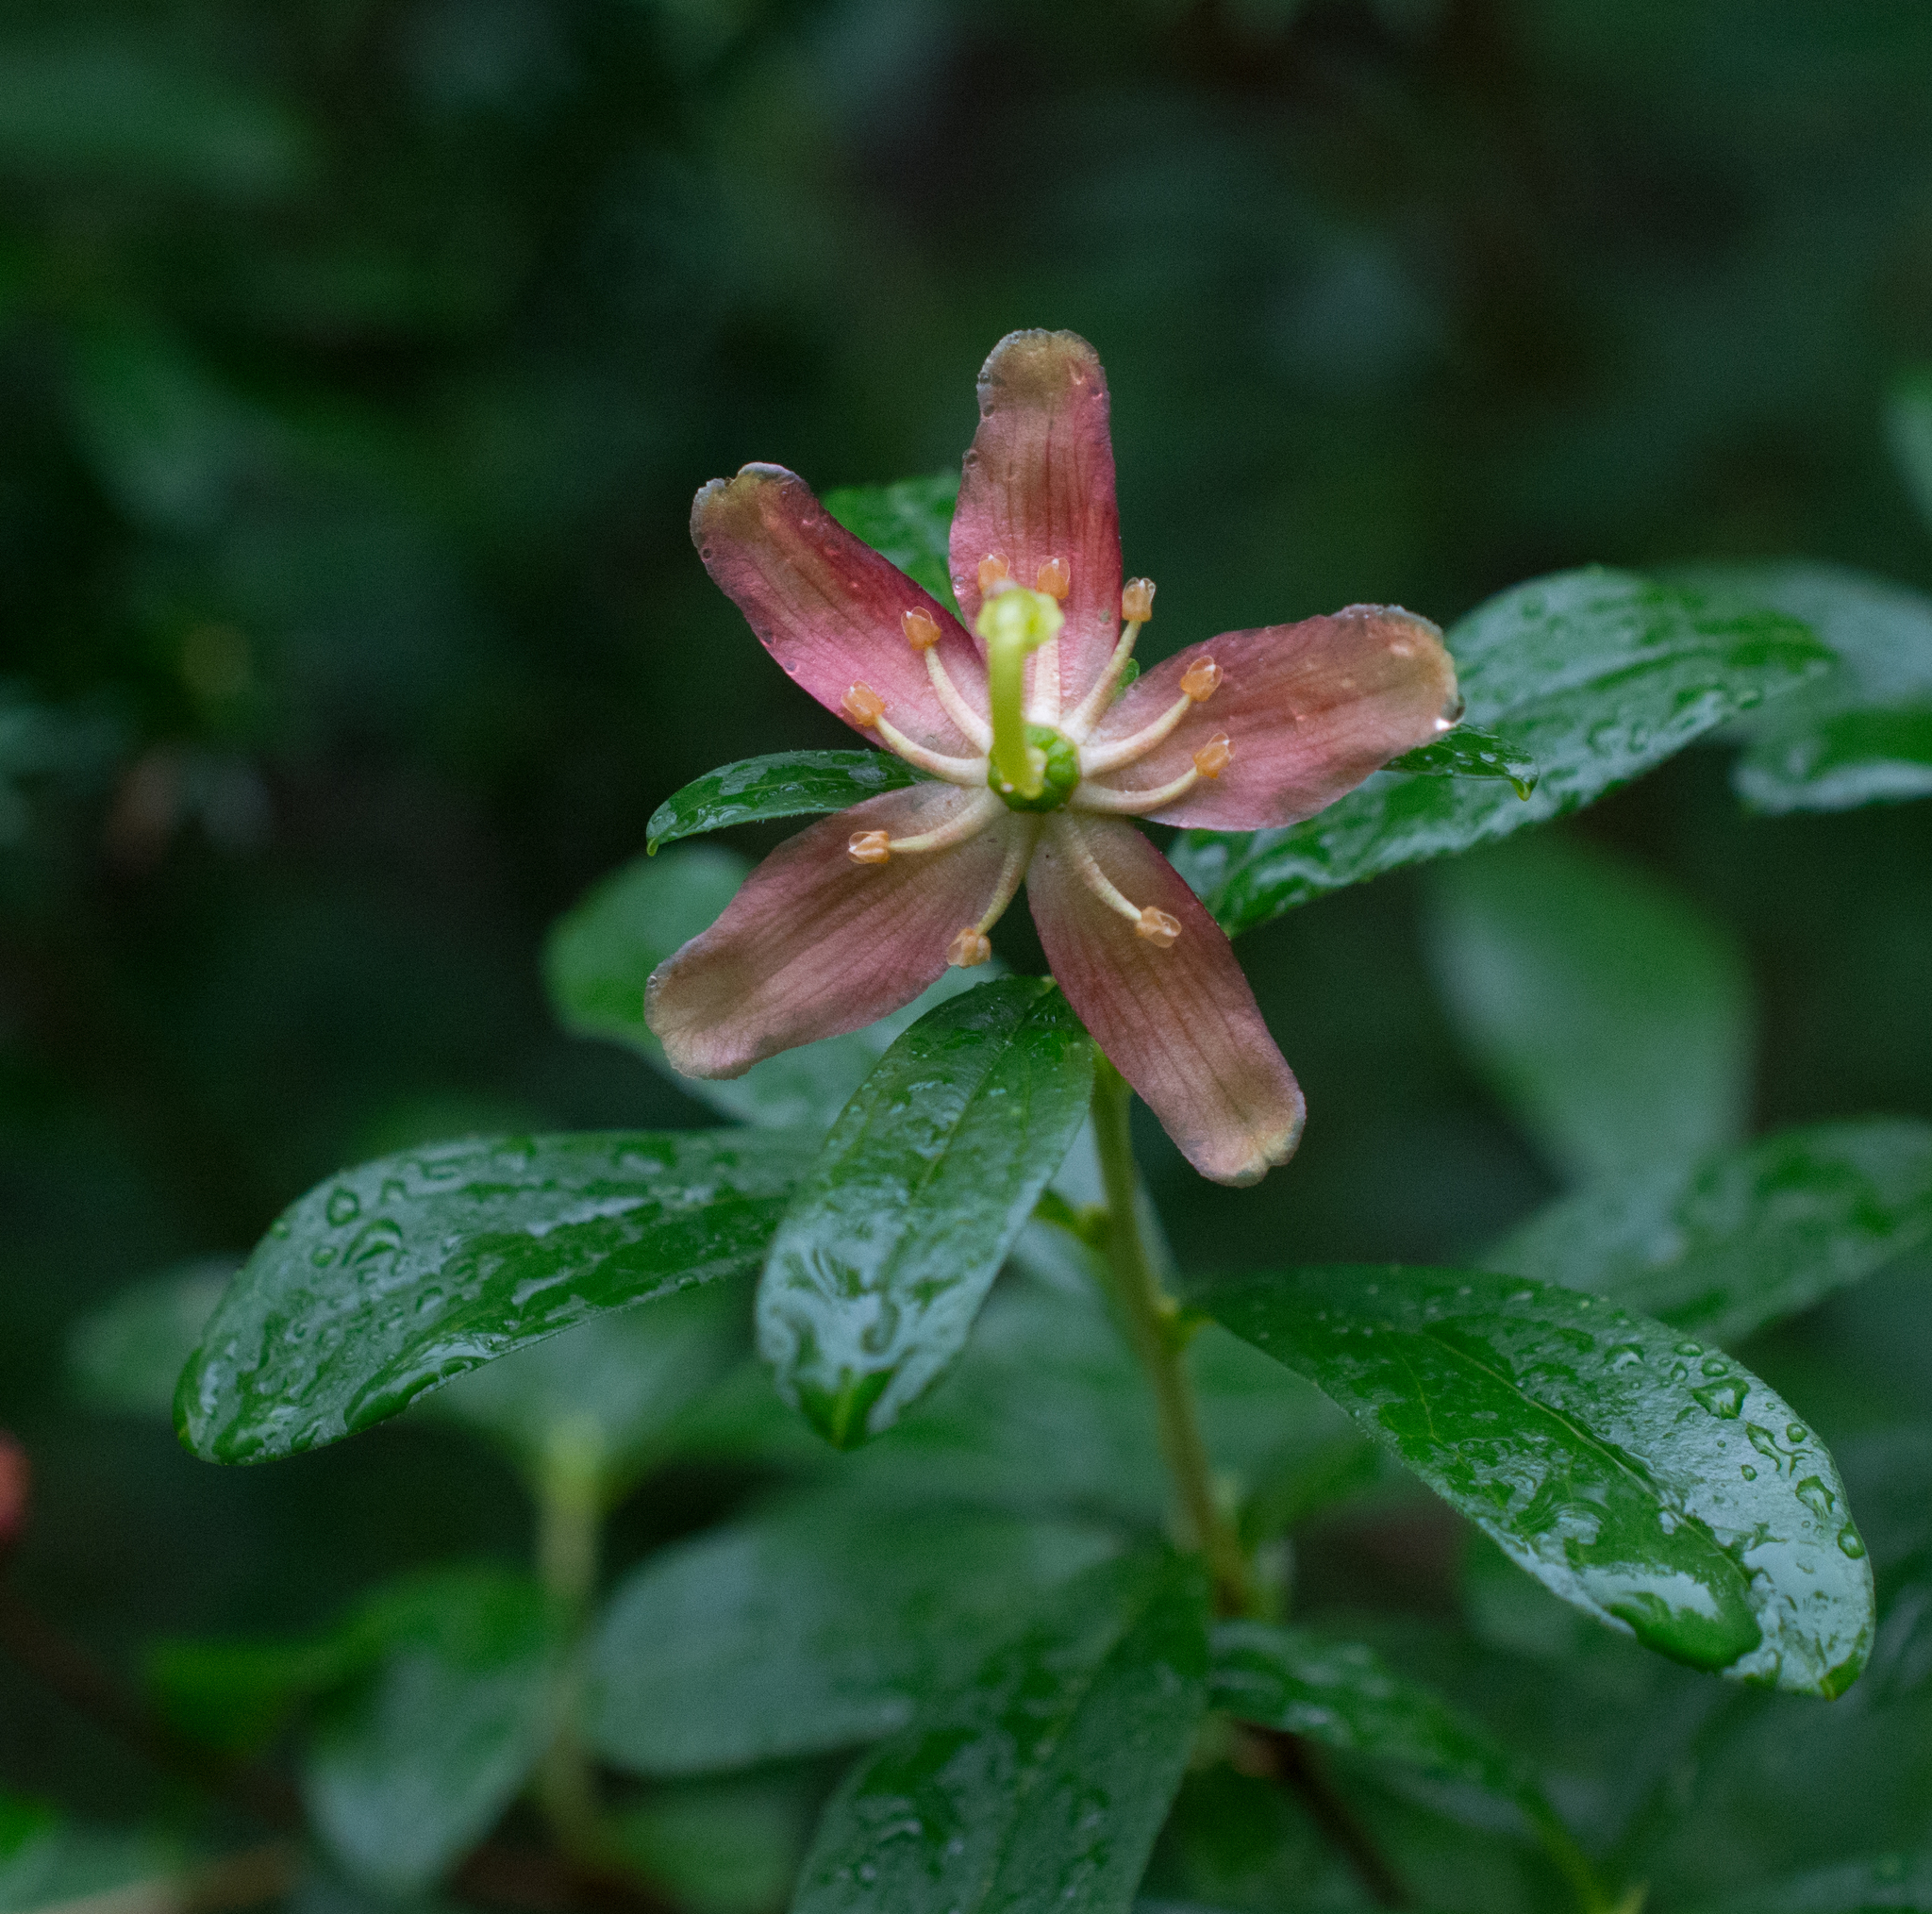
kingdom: Plantae
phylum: Tracheophyta
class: Magnoliopsida
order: Ericales
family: Ericaceae
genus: Elliottia
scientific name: Elliottia pyroliflora
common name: Copperbush
